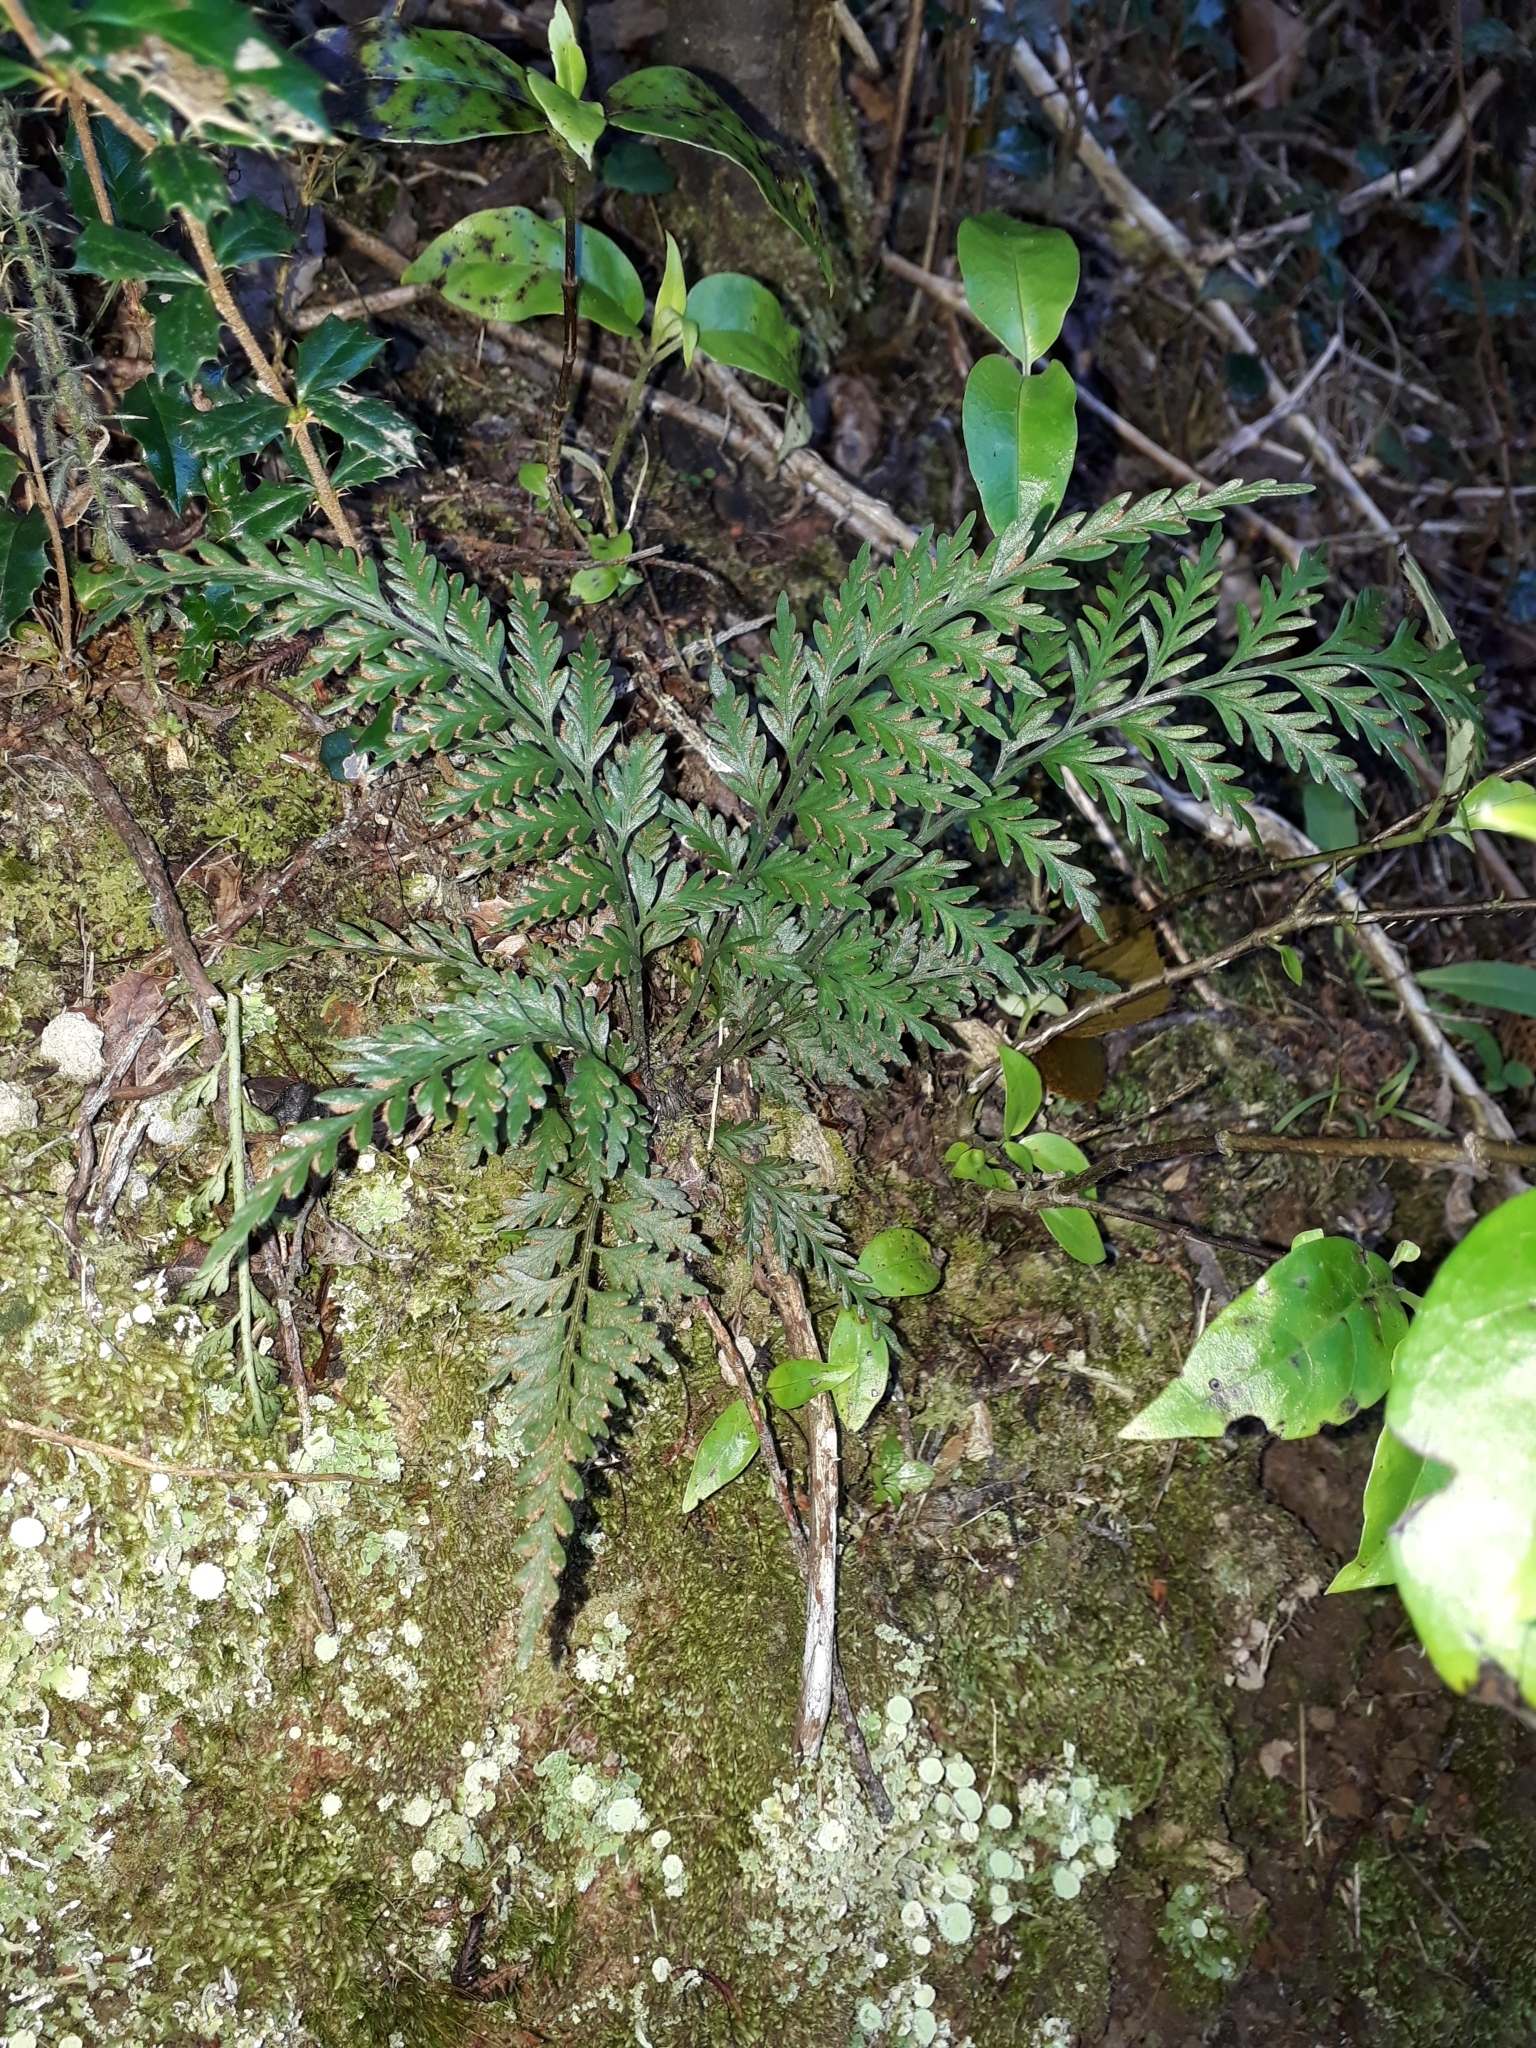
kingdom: Plantae
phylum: Tracheophyta
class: Polypodiopsida
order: Polypodiales
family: Aspleniaceae
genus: Asplenium
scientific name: Asplenium appendiculatum
